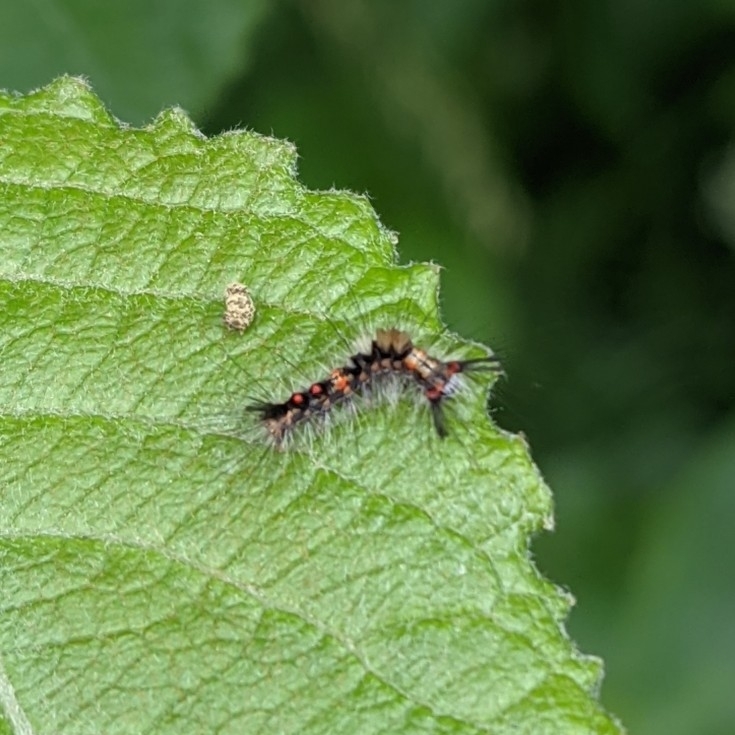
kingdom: Animalia
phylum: Arthropoda
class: Insecta
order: Lepidoptera
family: Erebidae
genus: Orgyia
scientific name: Orgyia antiqua
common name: Vapourer
